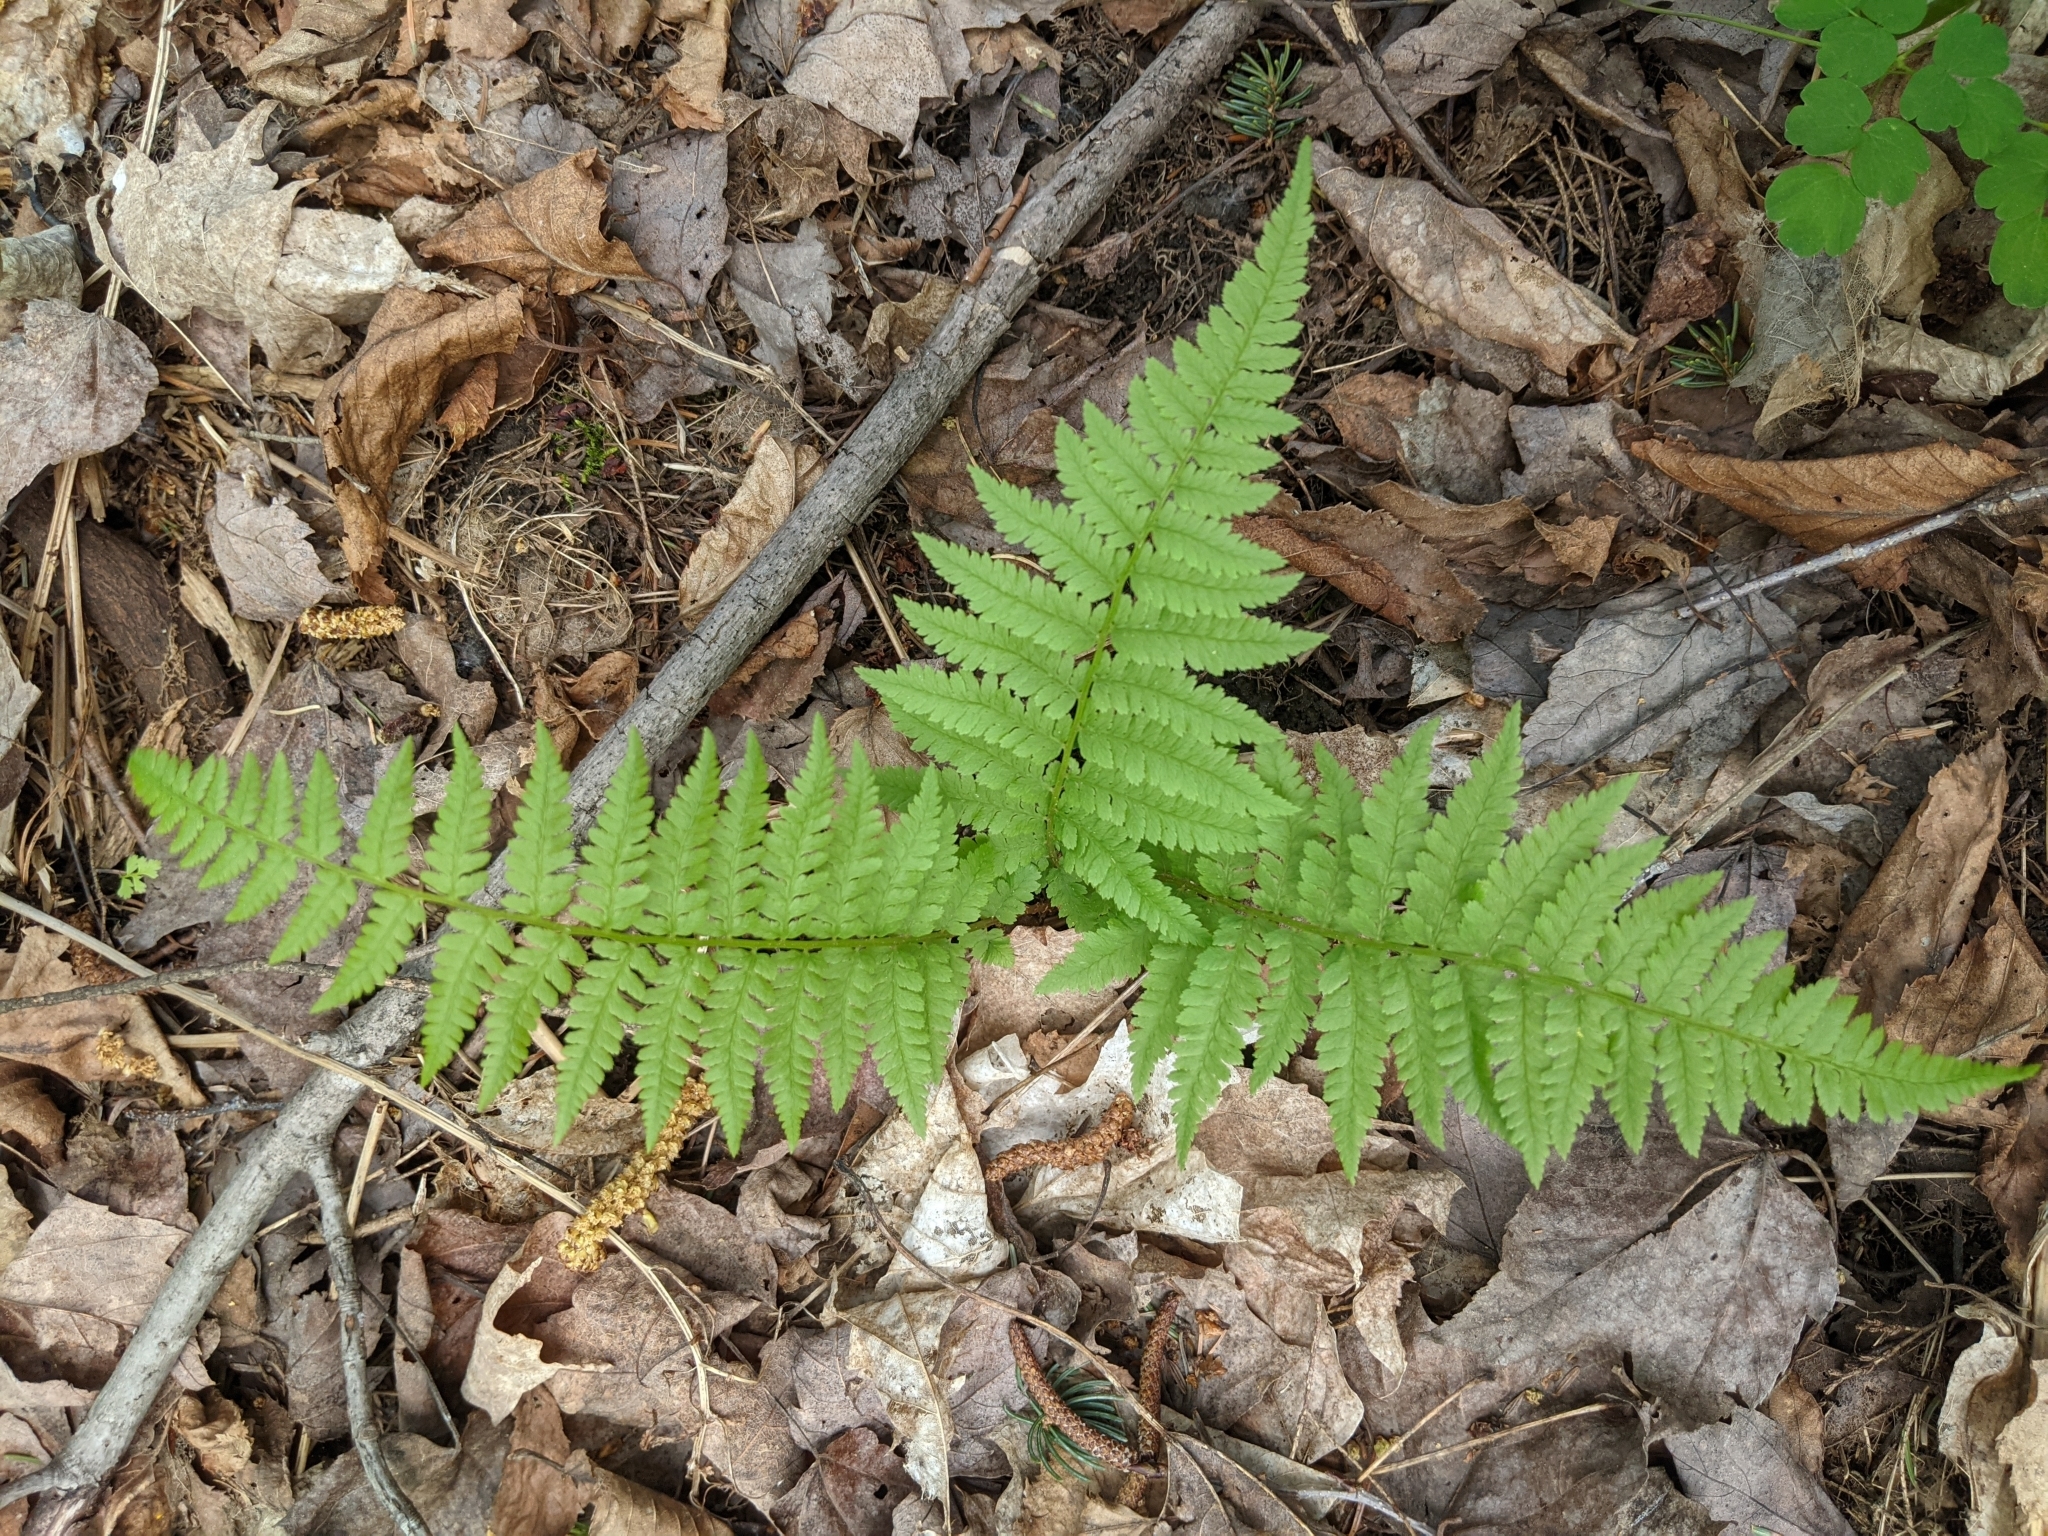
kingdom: Plantae
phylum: Tracheophyta
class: Polypodiopsida
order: Polypodiales
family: Athyriaceae
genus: Athyrium
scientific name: Athyrium angustum
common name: Northern lady fern
